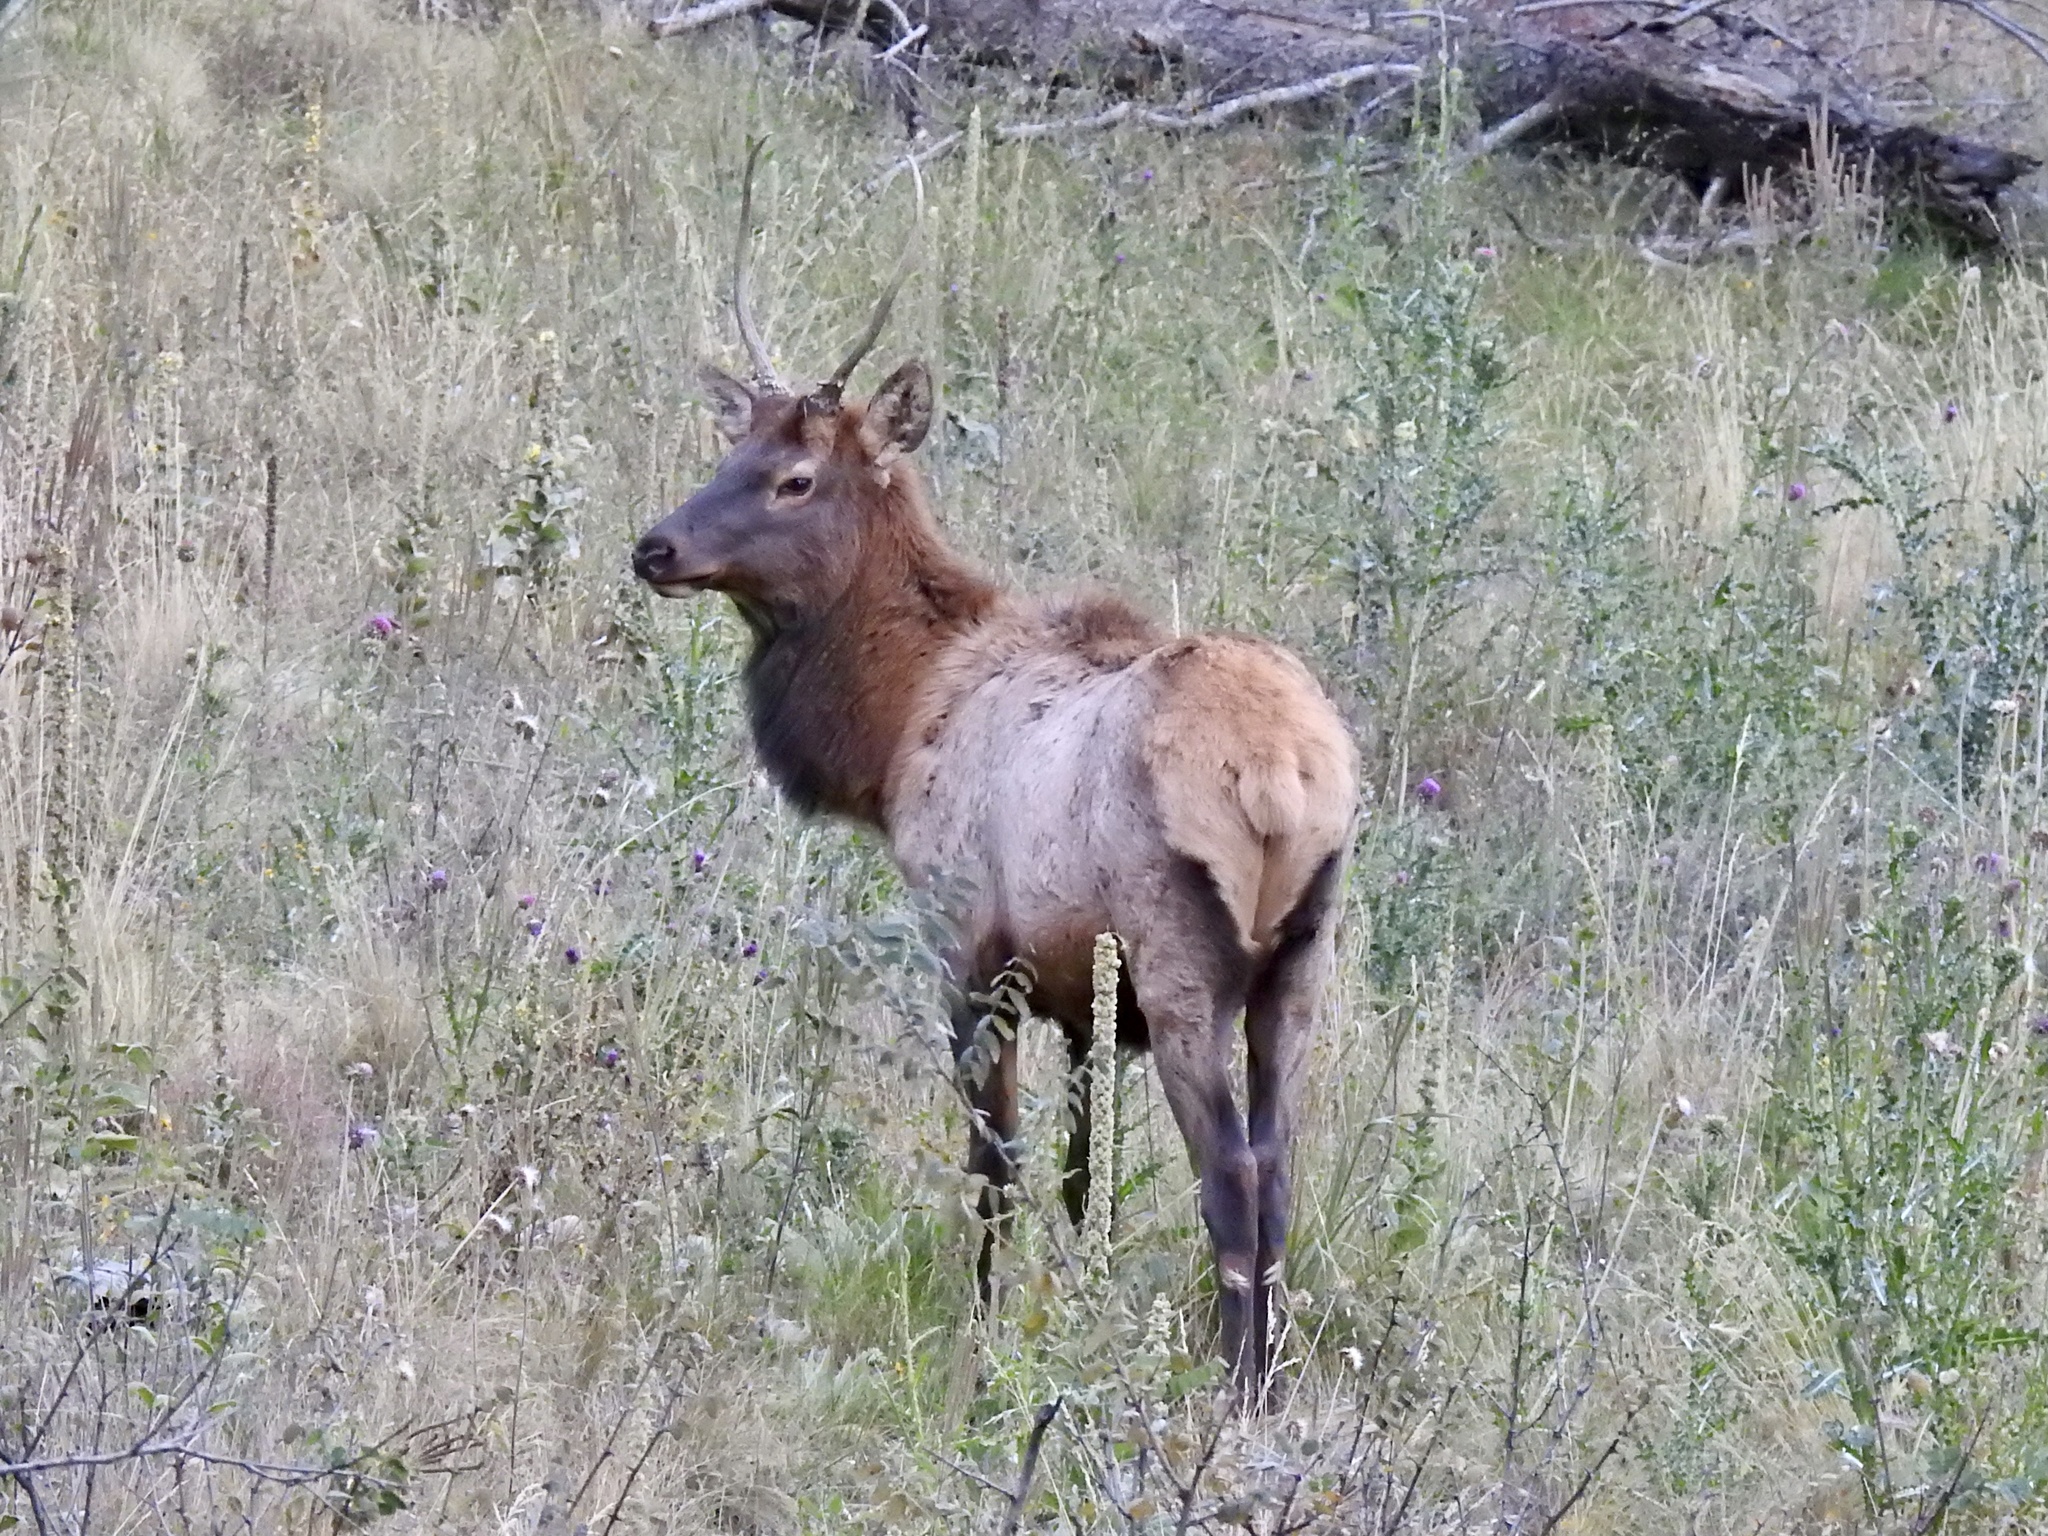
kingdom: Animalia
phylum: Chordata
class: Mammalia
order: Artiodactyla
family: Cervidae
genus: Cervus
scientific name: Cervus elaphus
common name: Red deer
